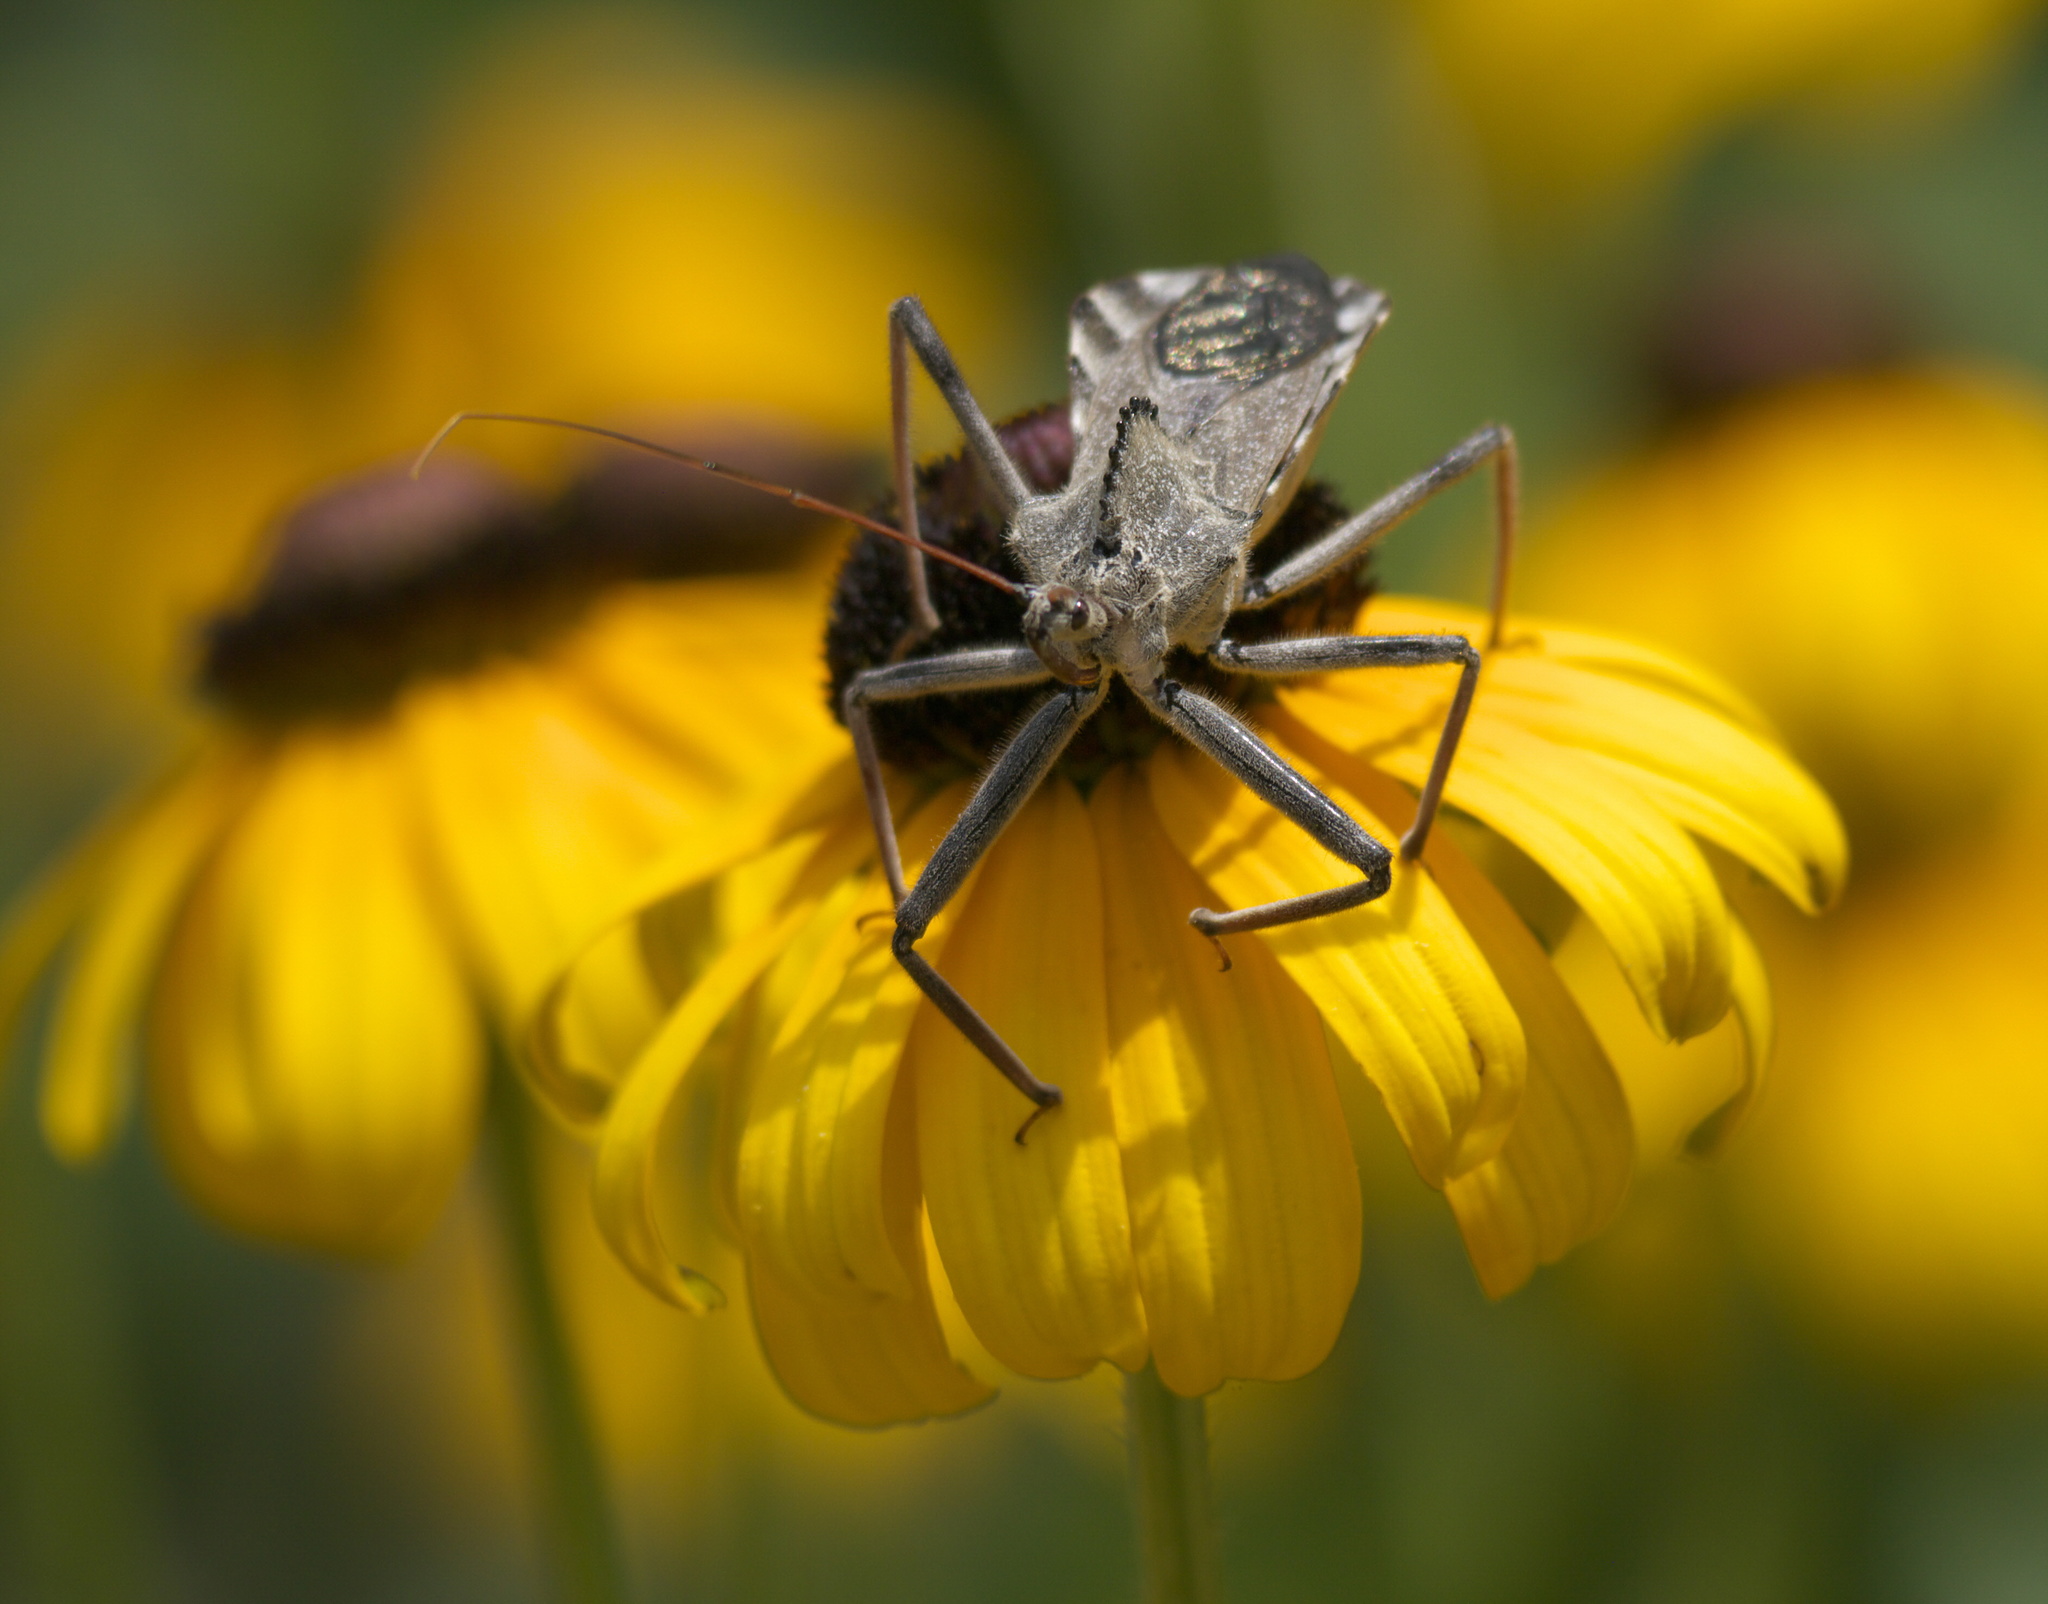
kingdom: Animalia
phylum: Arthropoda
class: Insecta
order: Hemiptera
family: Reduviidae
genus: Arilus
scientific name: Arilus cristatus
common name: North american wheel bug
